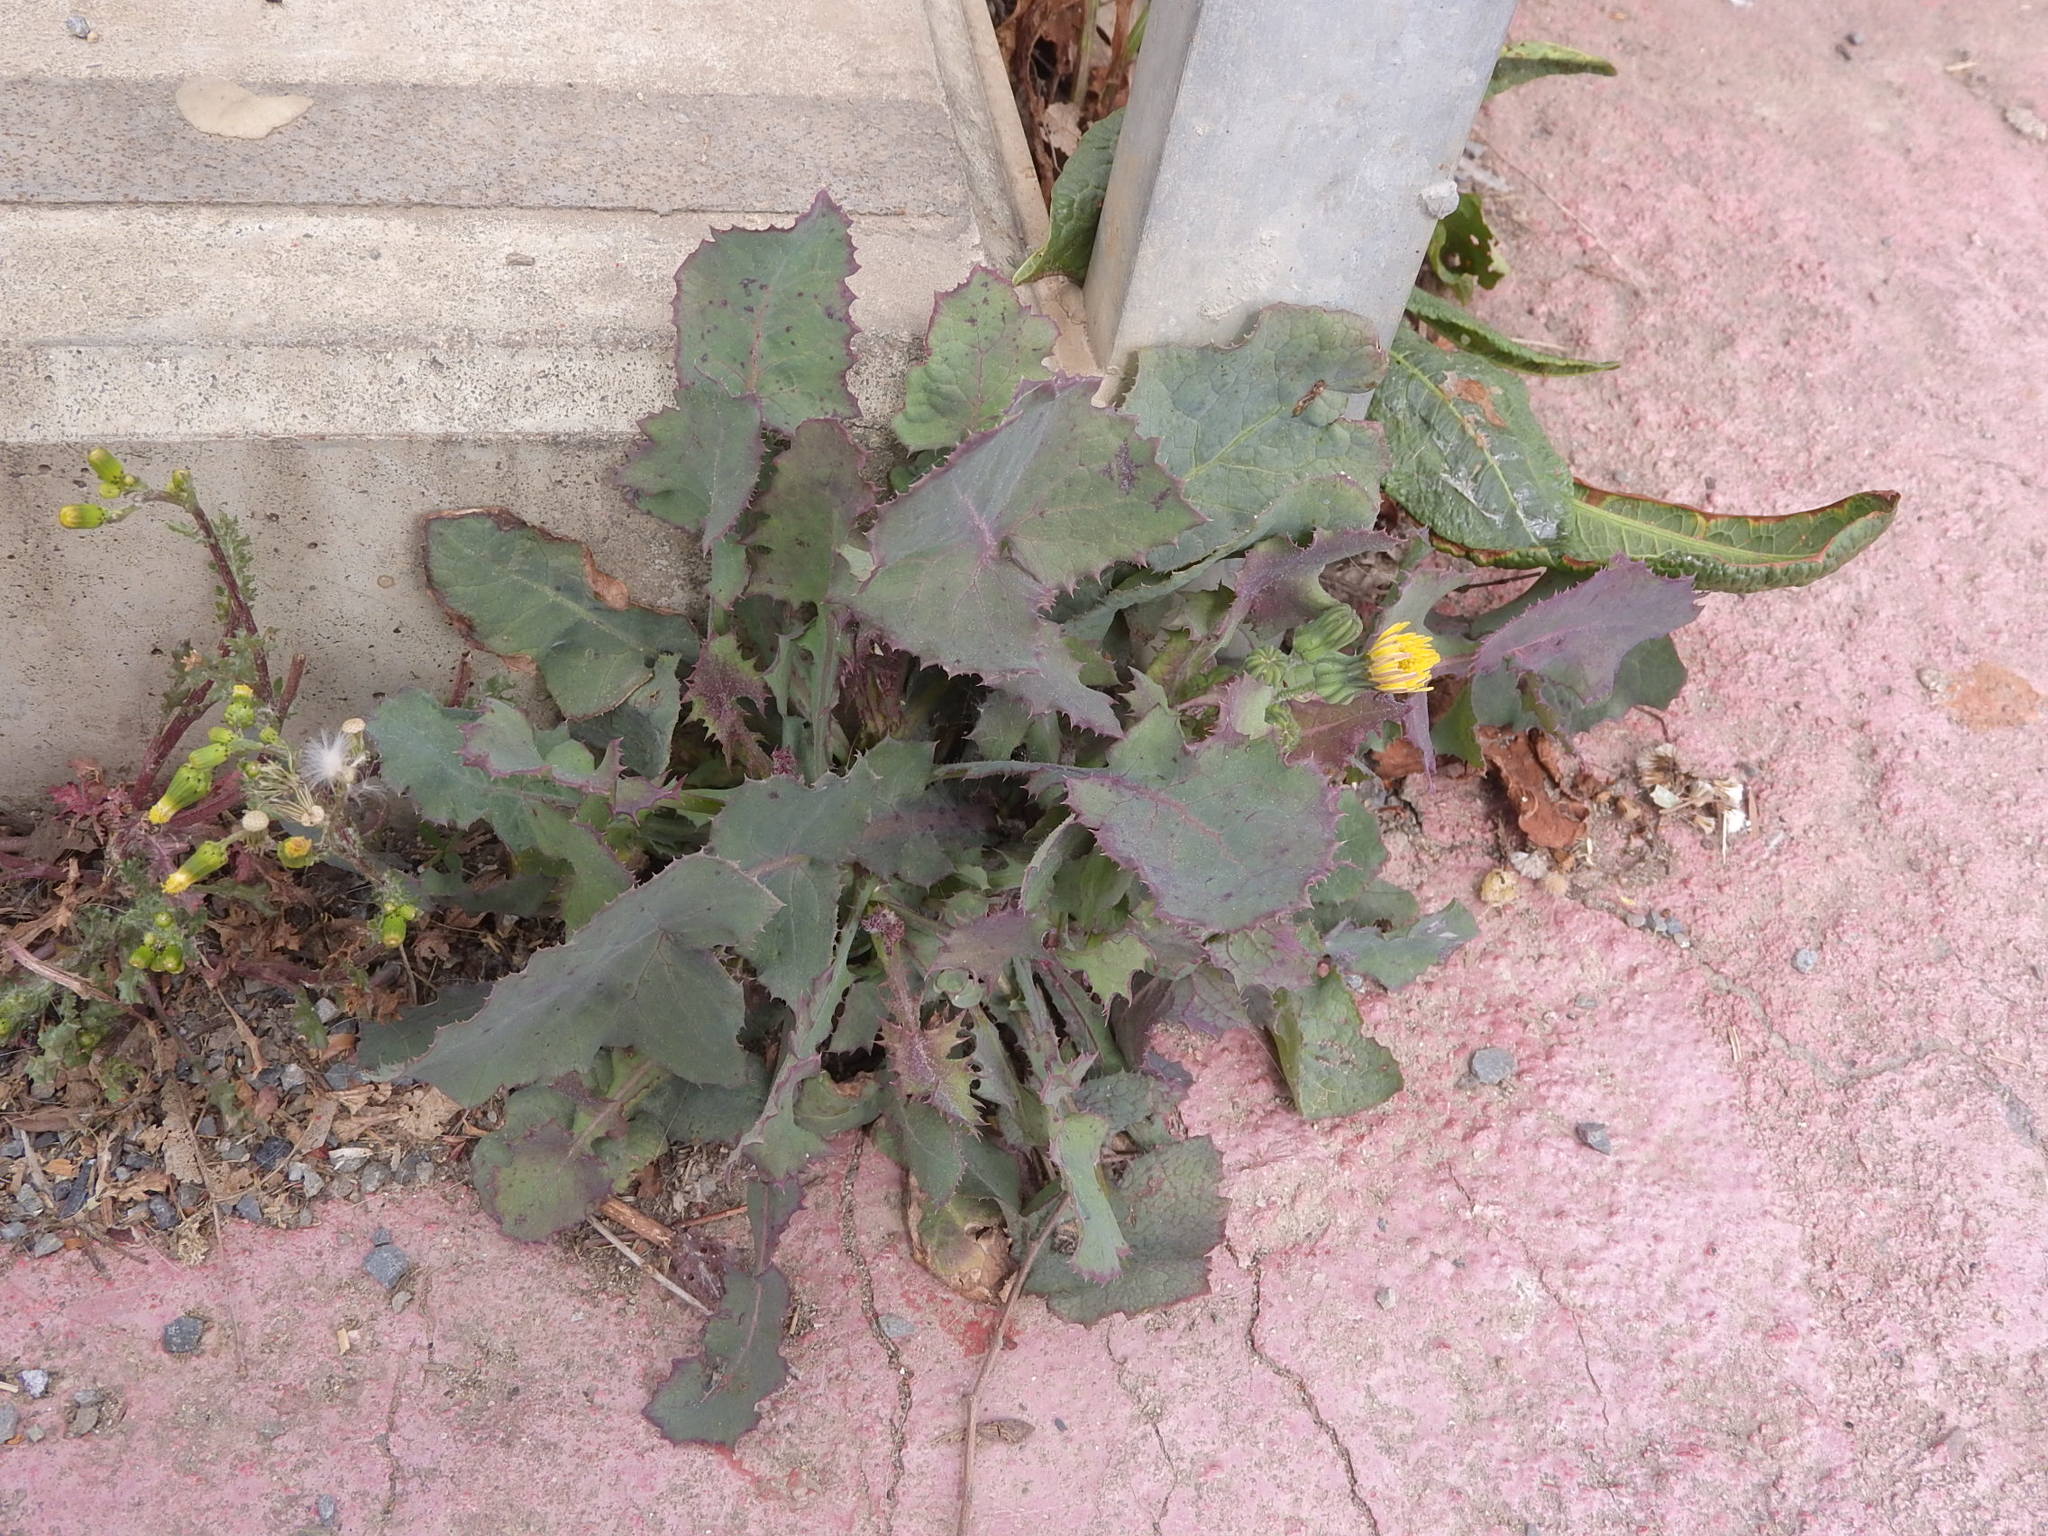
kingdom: Plantae
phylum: Tracheophyta
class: Magnoliopsida
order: Asterales
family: Asteraceae
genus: Sonchus
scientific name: Sonchus oleraceus
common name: Common sowthistle
